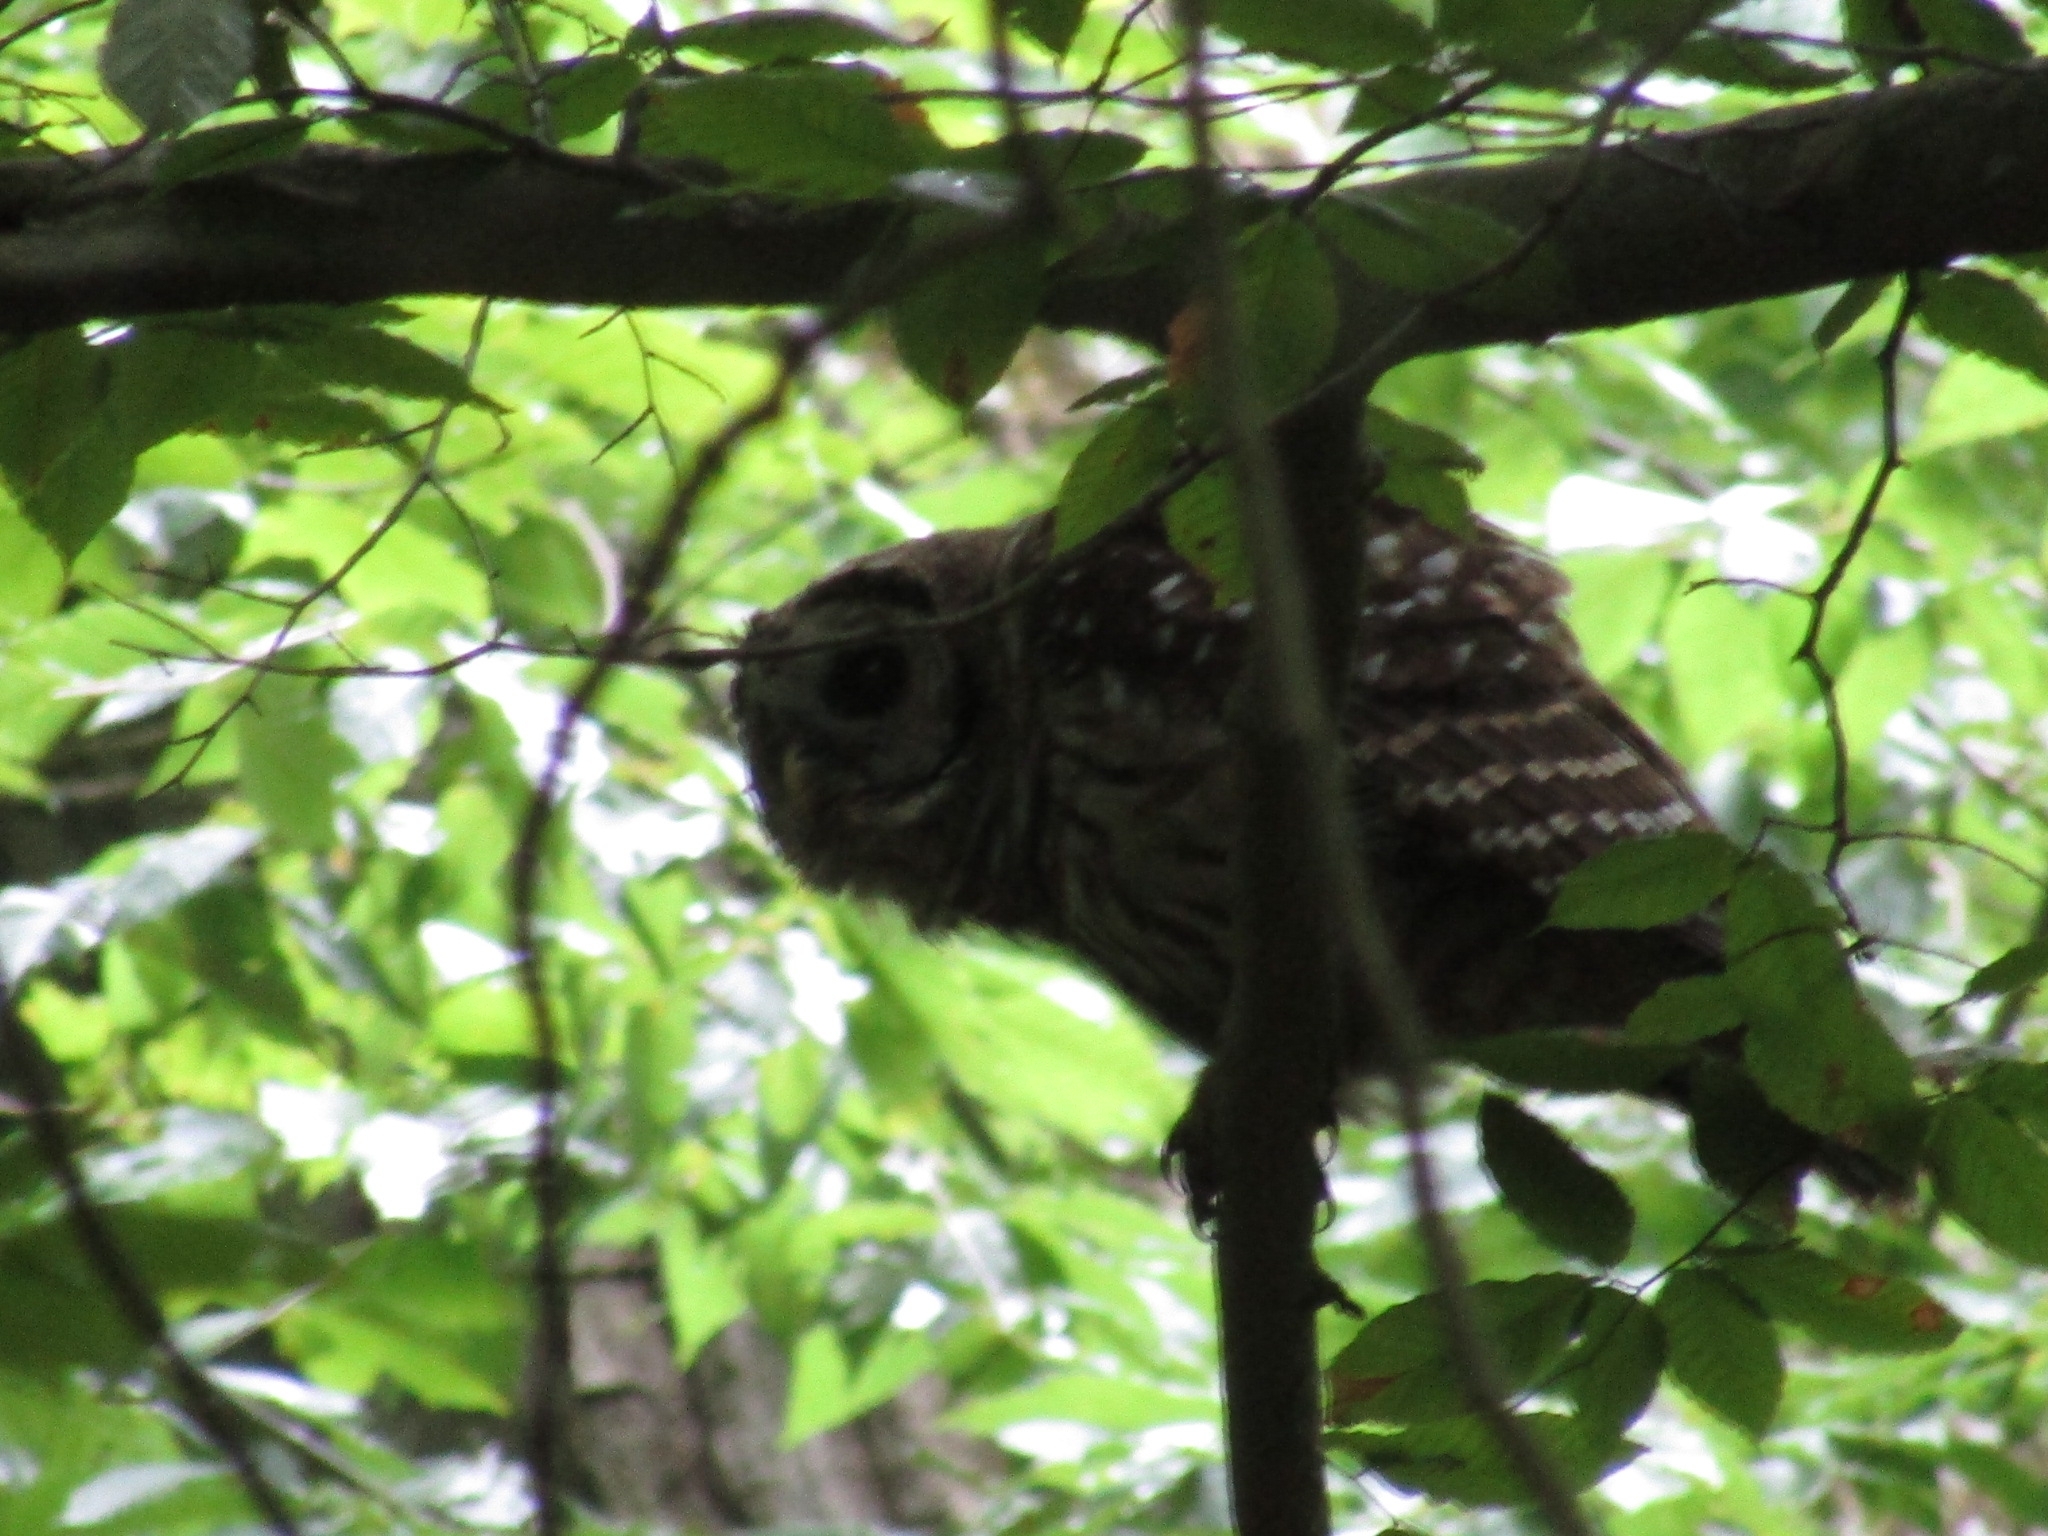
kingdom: Animalia
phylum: Chordata
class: Aves
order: Strigiformes
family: Strigidae
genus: Strix
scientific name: Strix varia
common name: Barred owl
